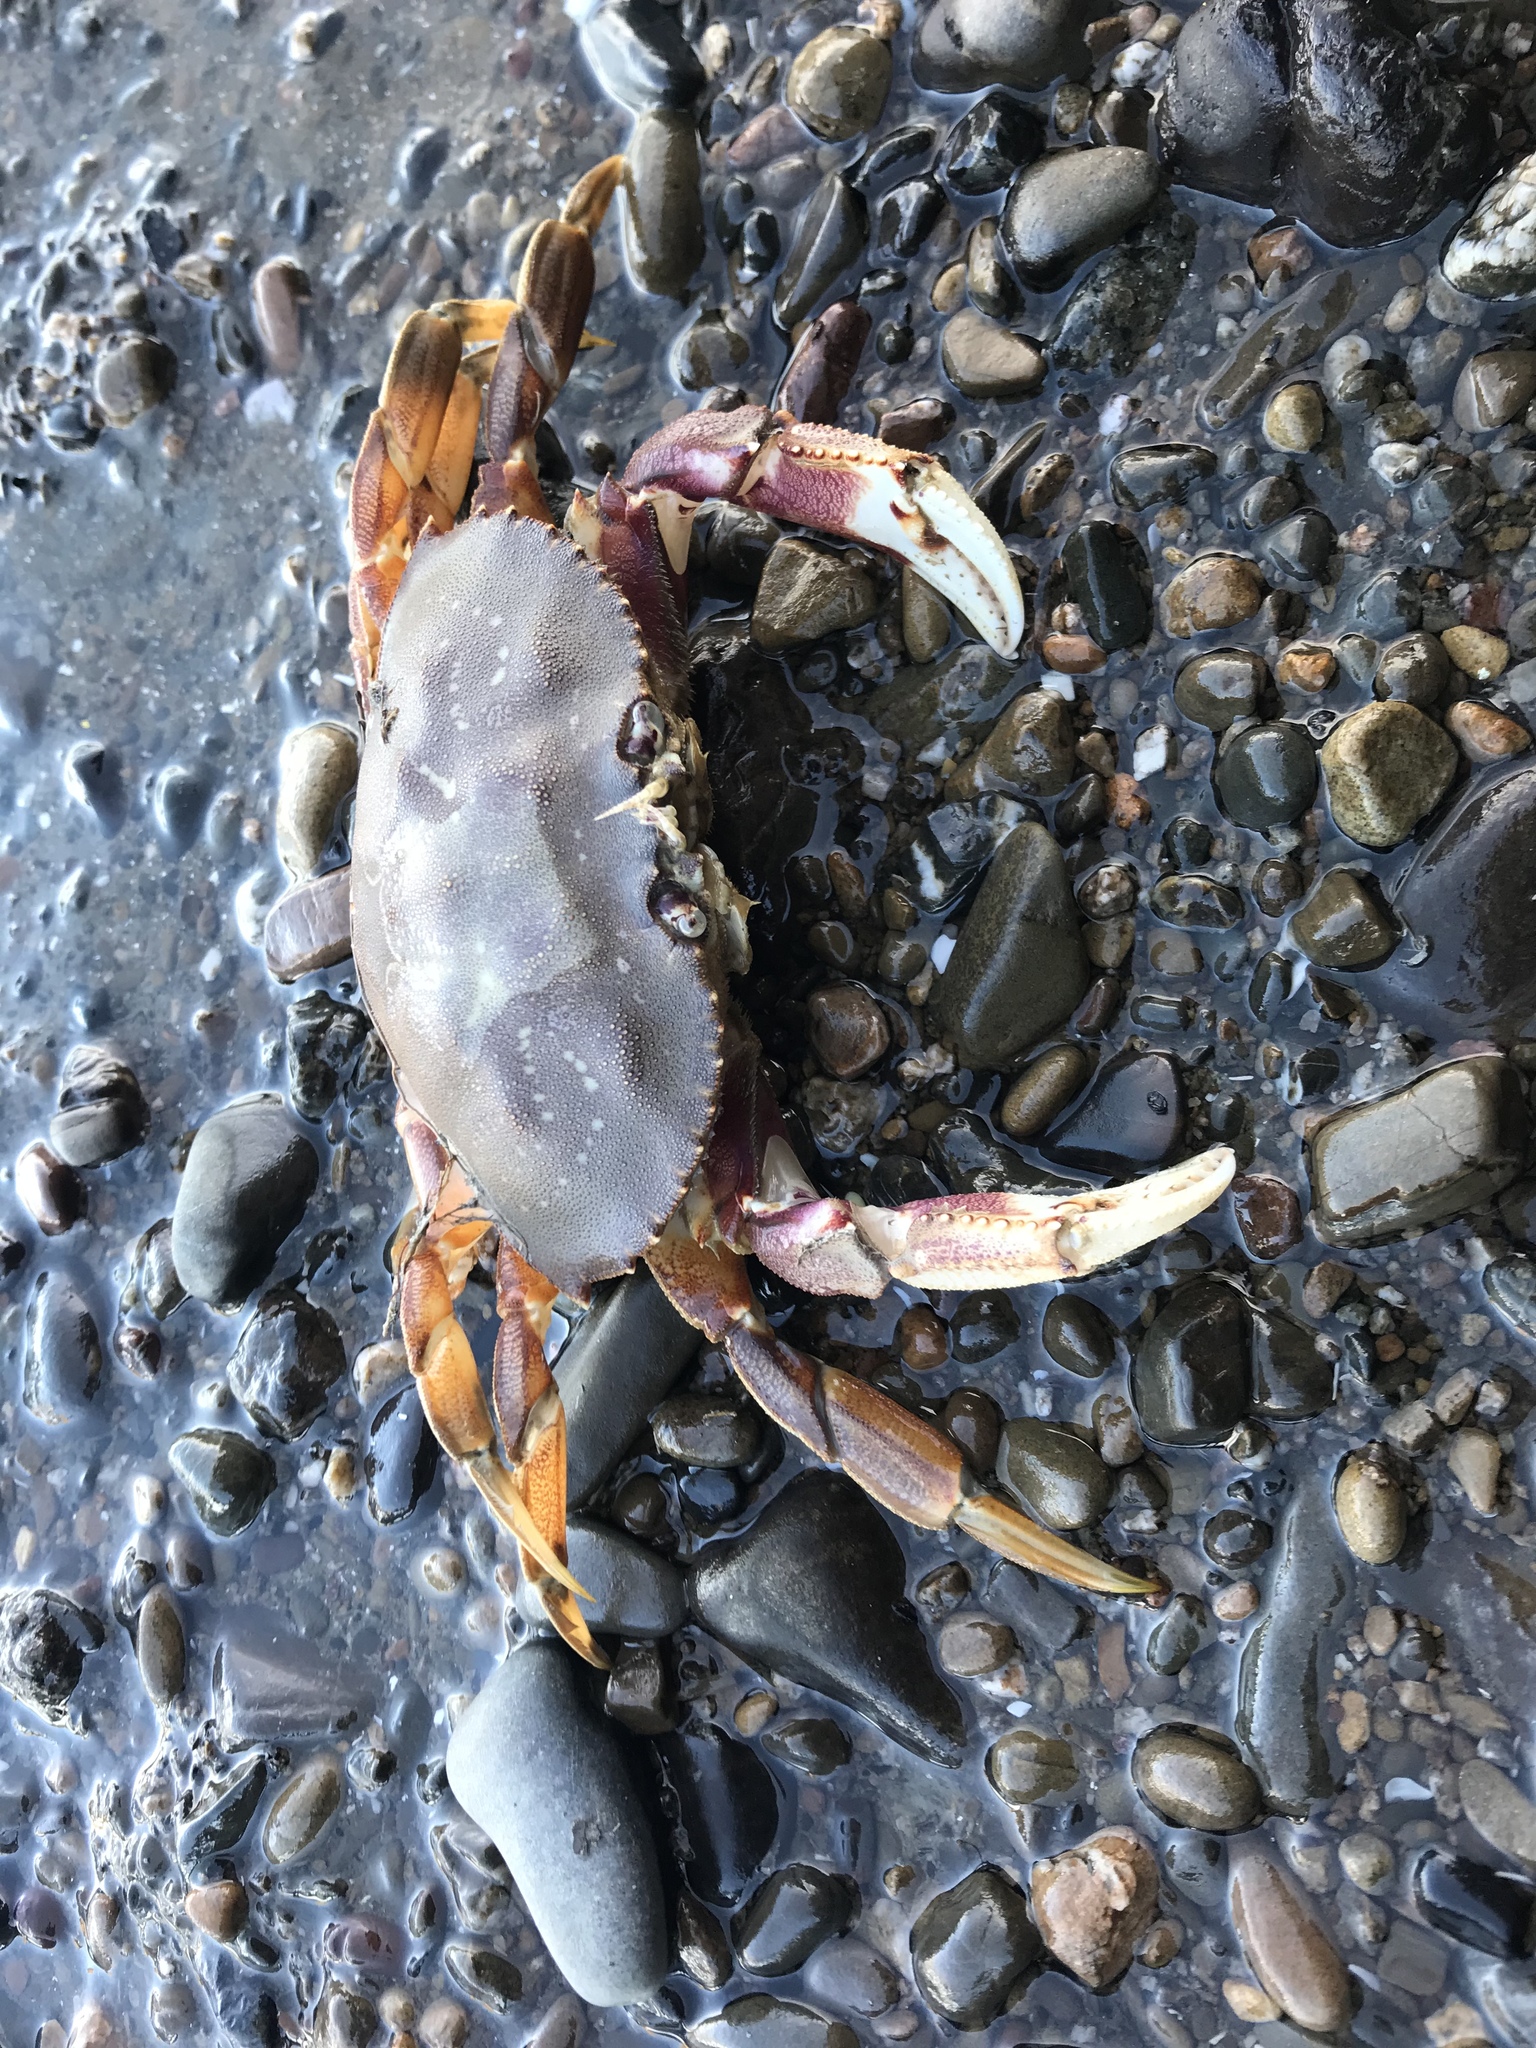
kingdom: Animalia
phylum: Arthropoda
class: Malacostraca
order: Decapoda
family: Cancridae
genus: Metacarcinus
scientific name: Metacarcinus magister
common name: Californian crab
